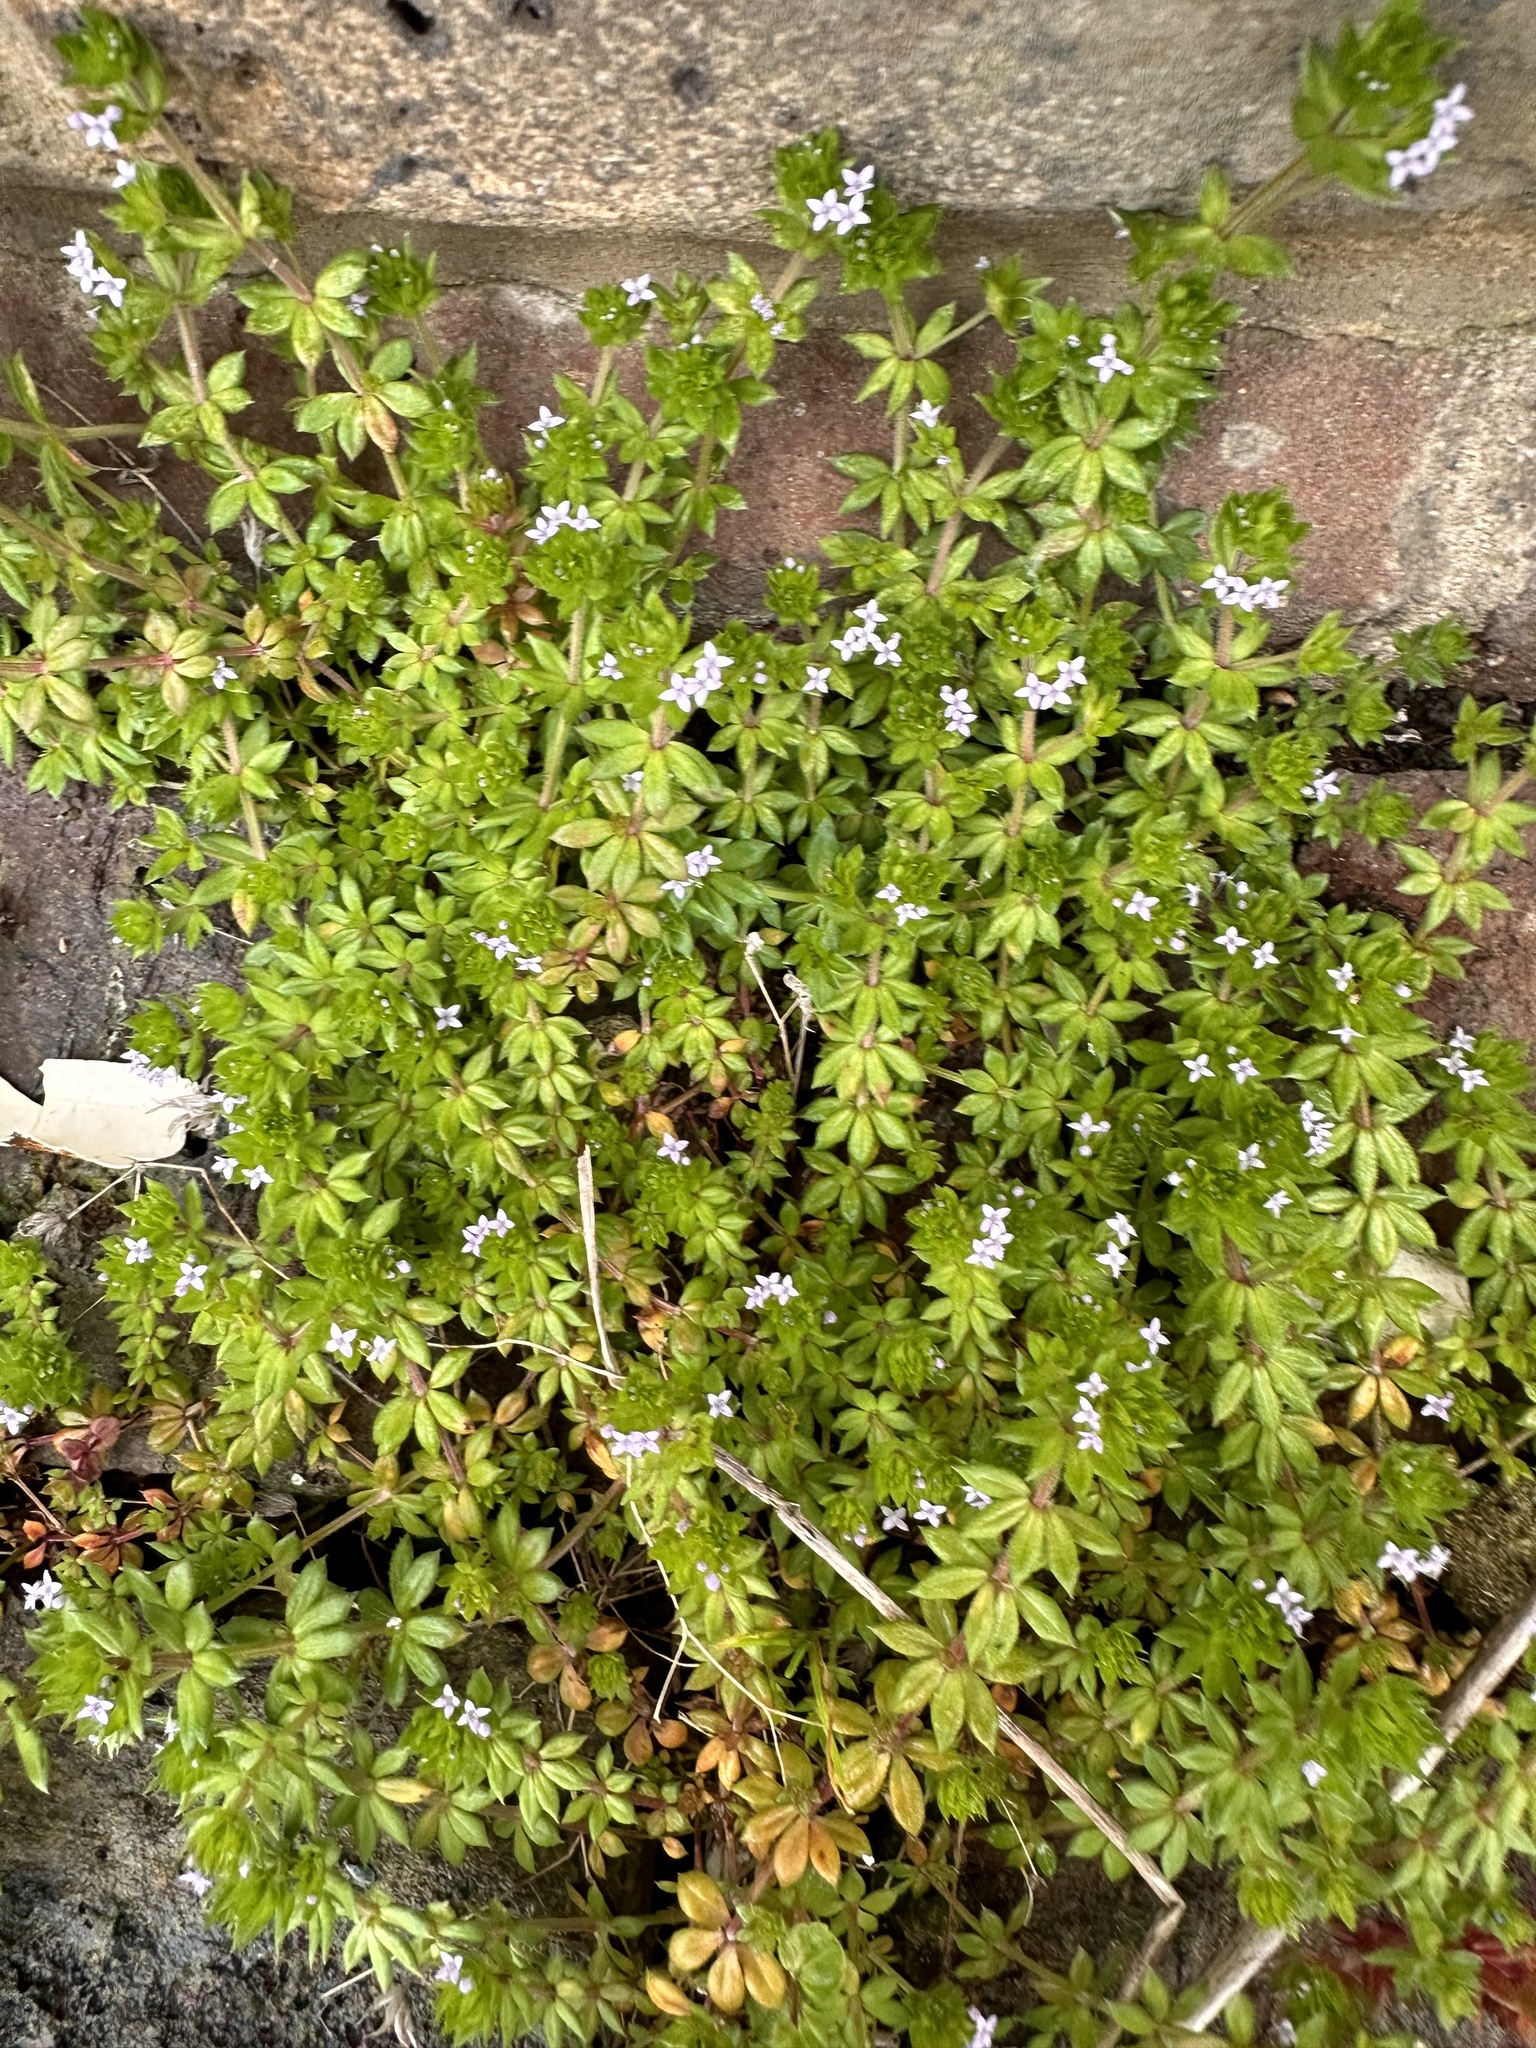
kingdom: Plantae
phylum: Tracheophyta
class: Magnoliopsida
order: Gentianales
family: Rubiaceae
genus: Sherardia
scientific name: Sherardia arvensis
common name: Field madder
